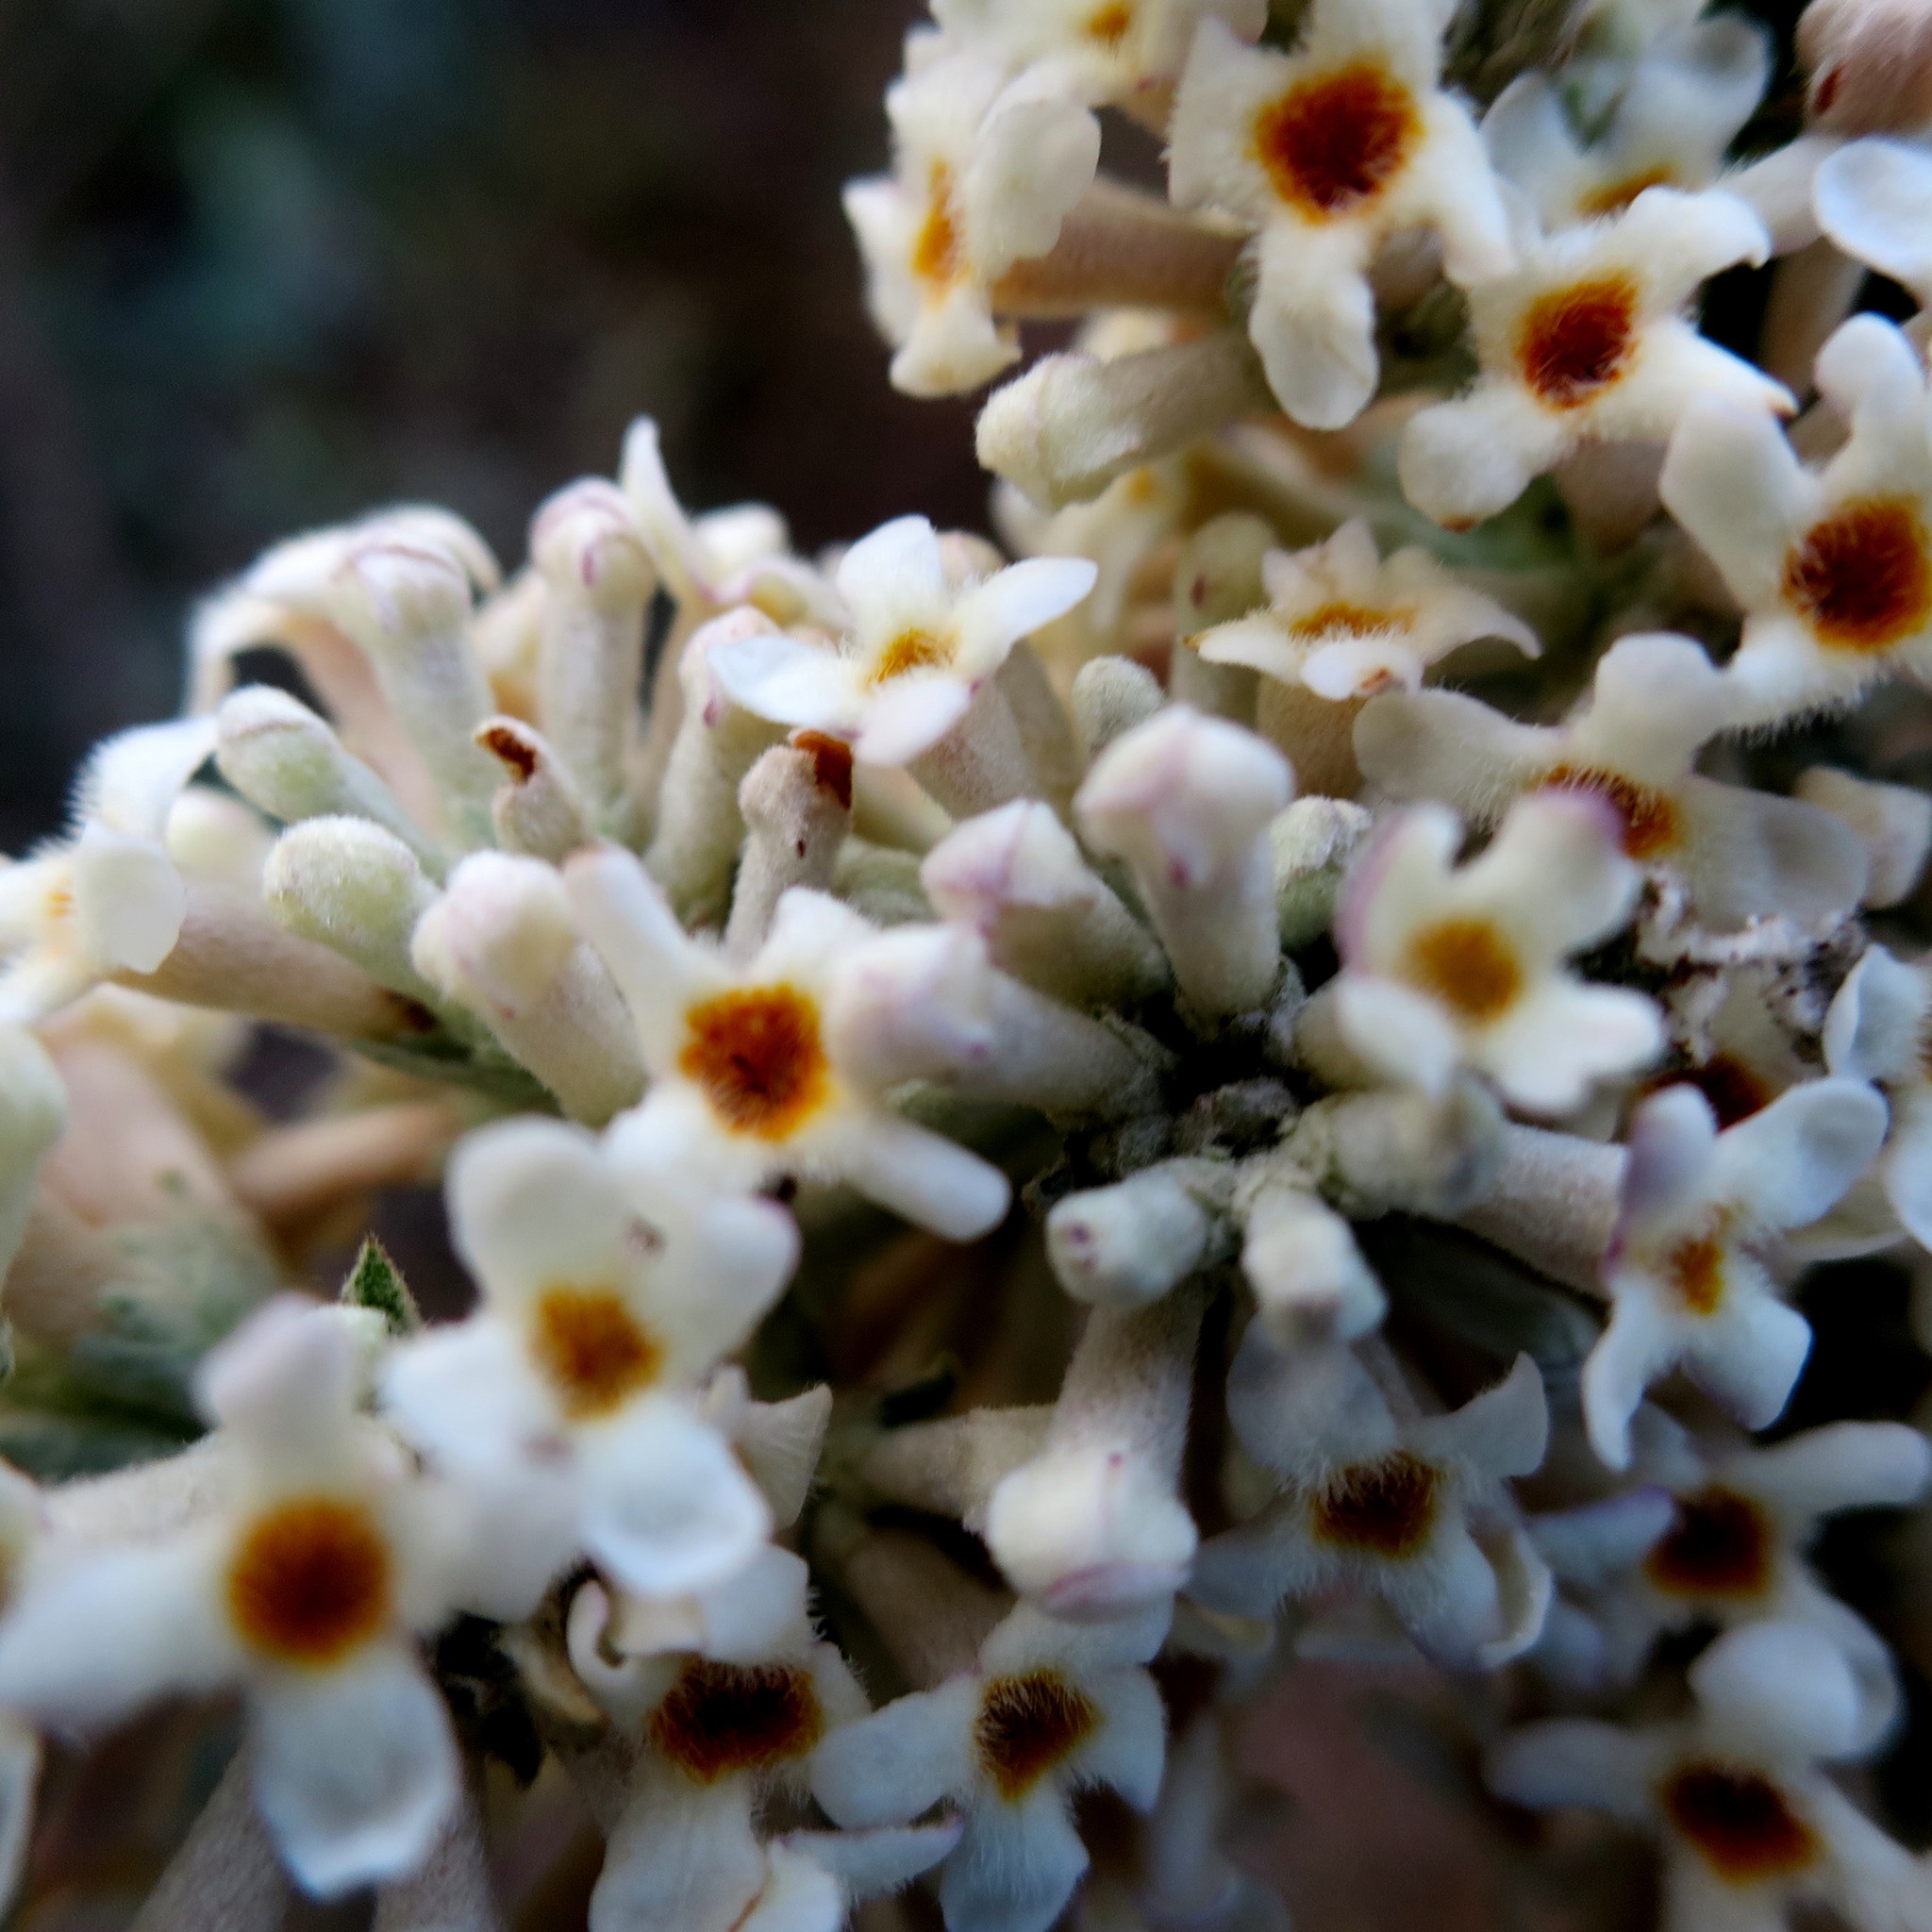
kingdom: Plantae
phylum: Tracheophyta
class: Magnoliopsida
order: Lamiales
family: Scrophulariaceae
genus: Buddleja
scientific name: Buddleja salviifolia
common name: Sagewood
